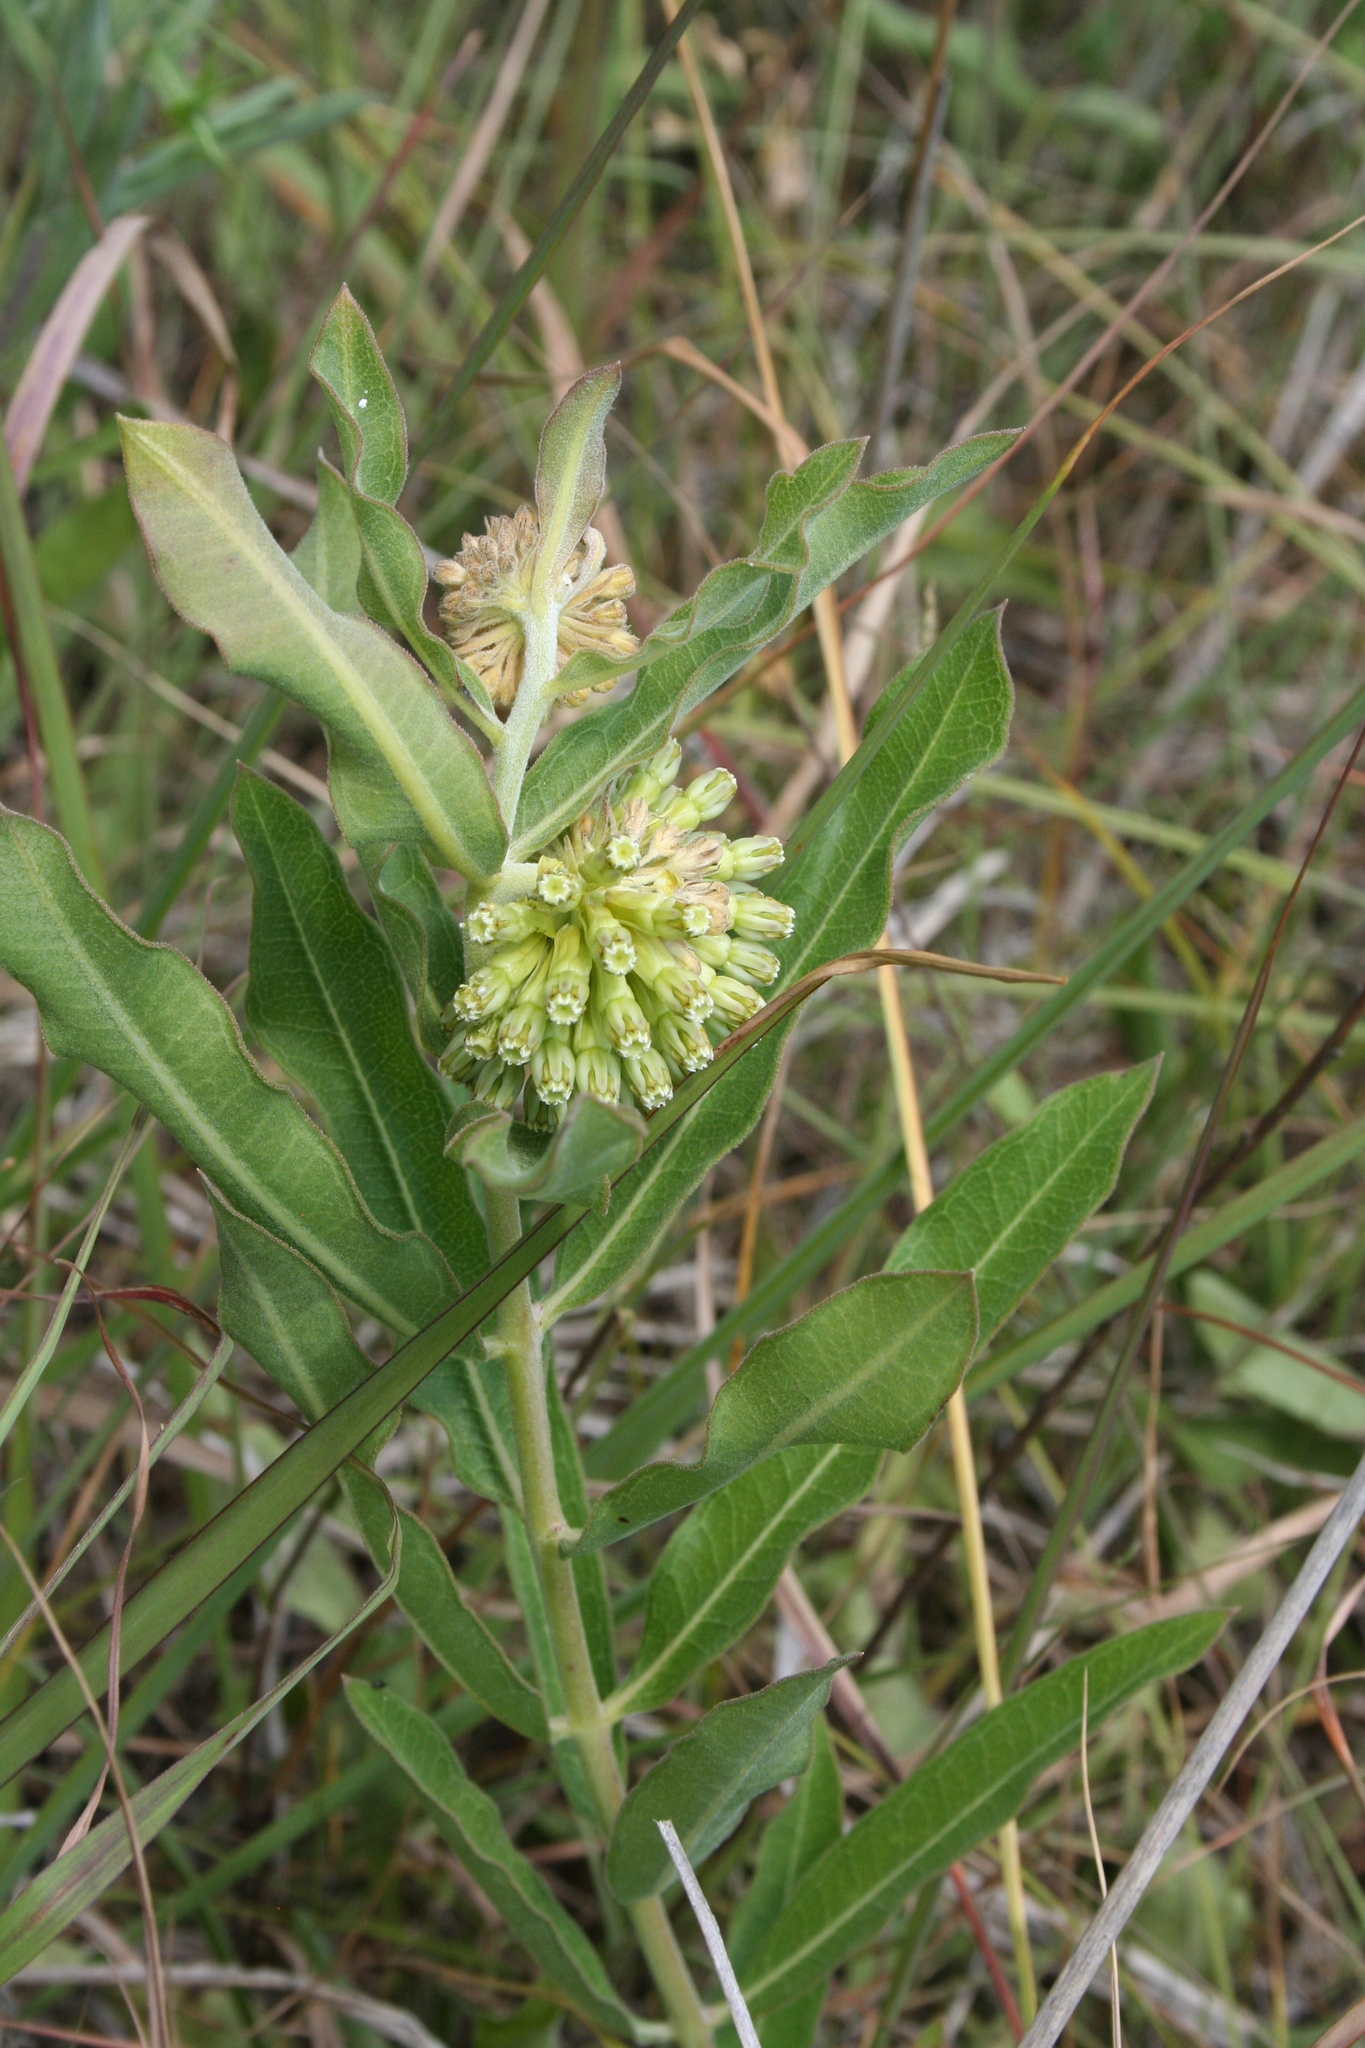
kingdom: Plantae
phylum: Tracheophyta
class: Magnoliopsida
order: Gentianales
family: Apocynaceae
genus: Asclepias
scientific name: Asclepias viridiflora
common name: Green comet milkweed
